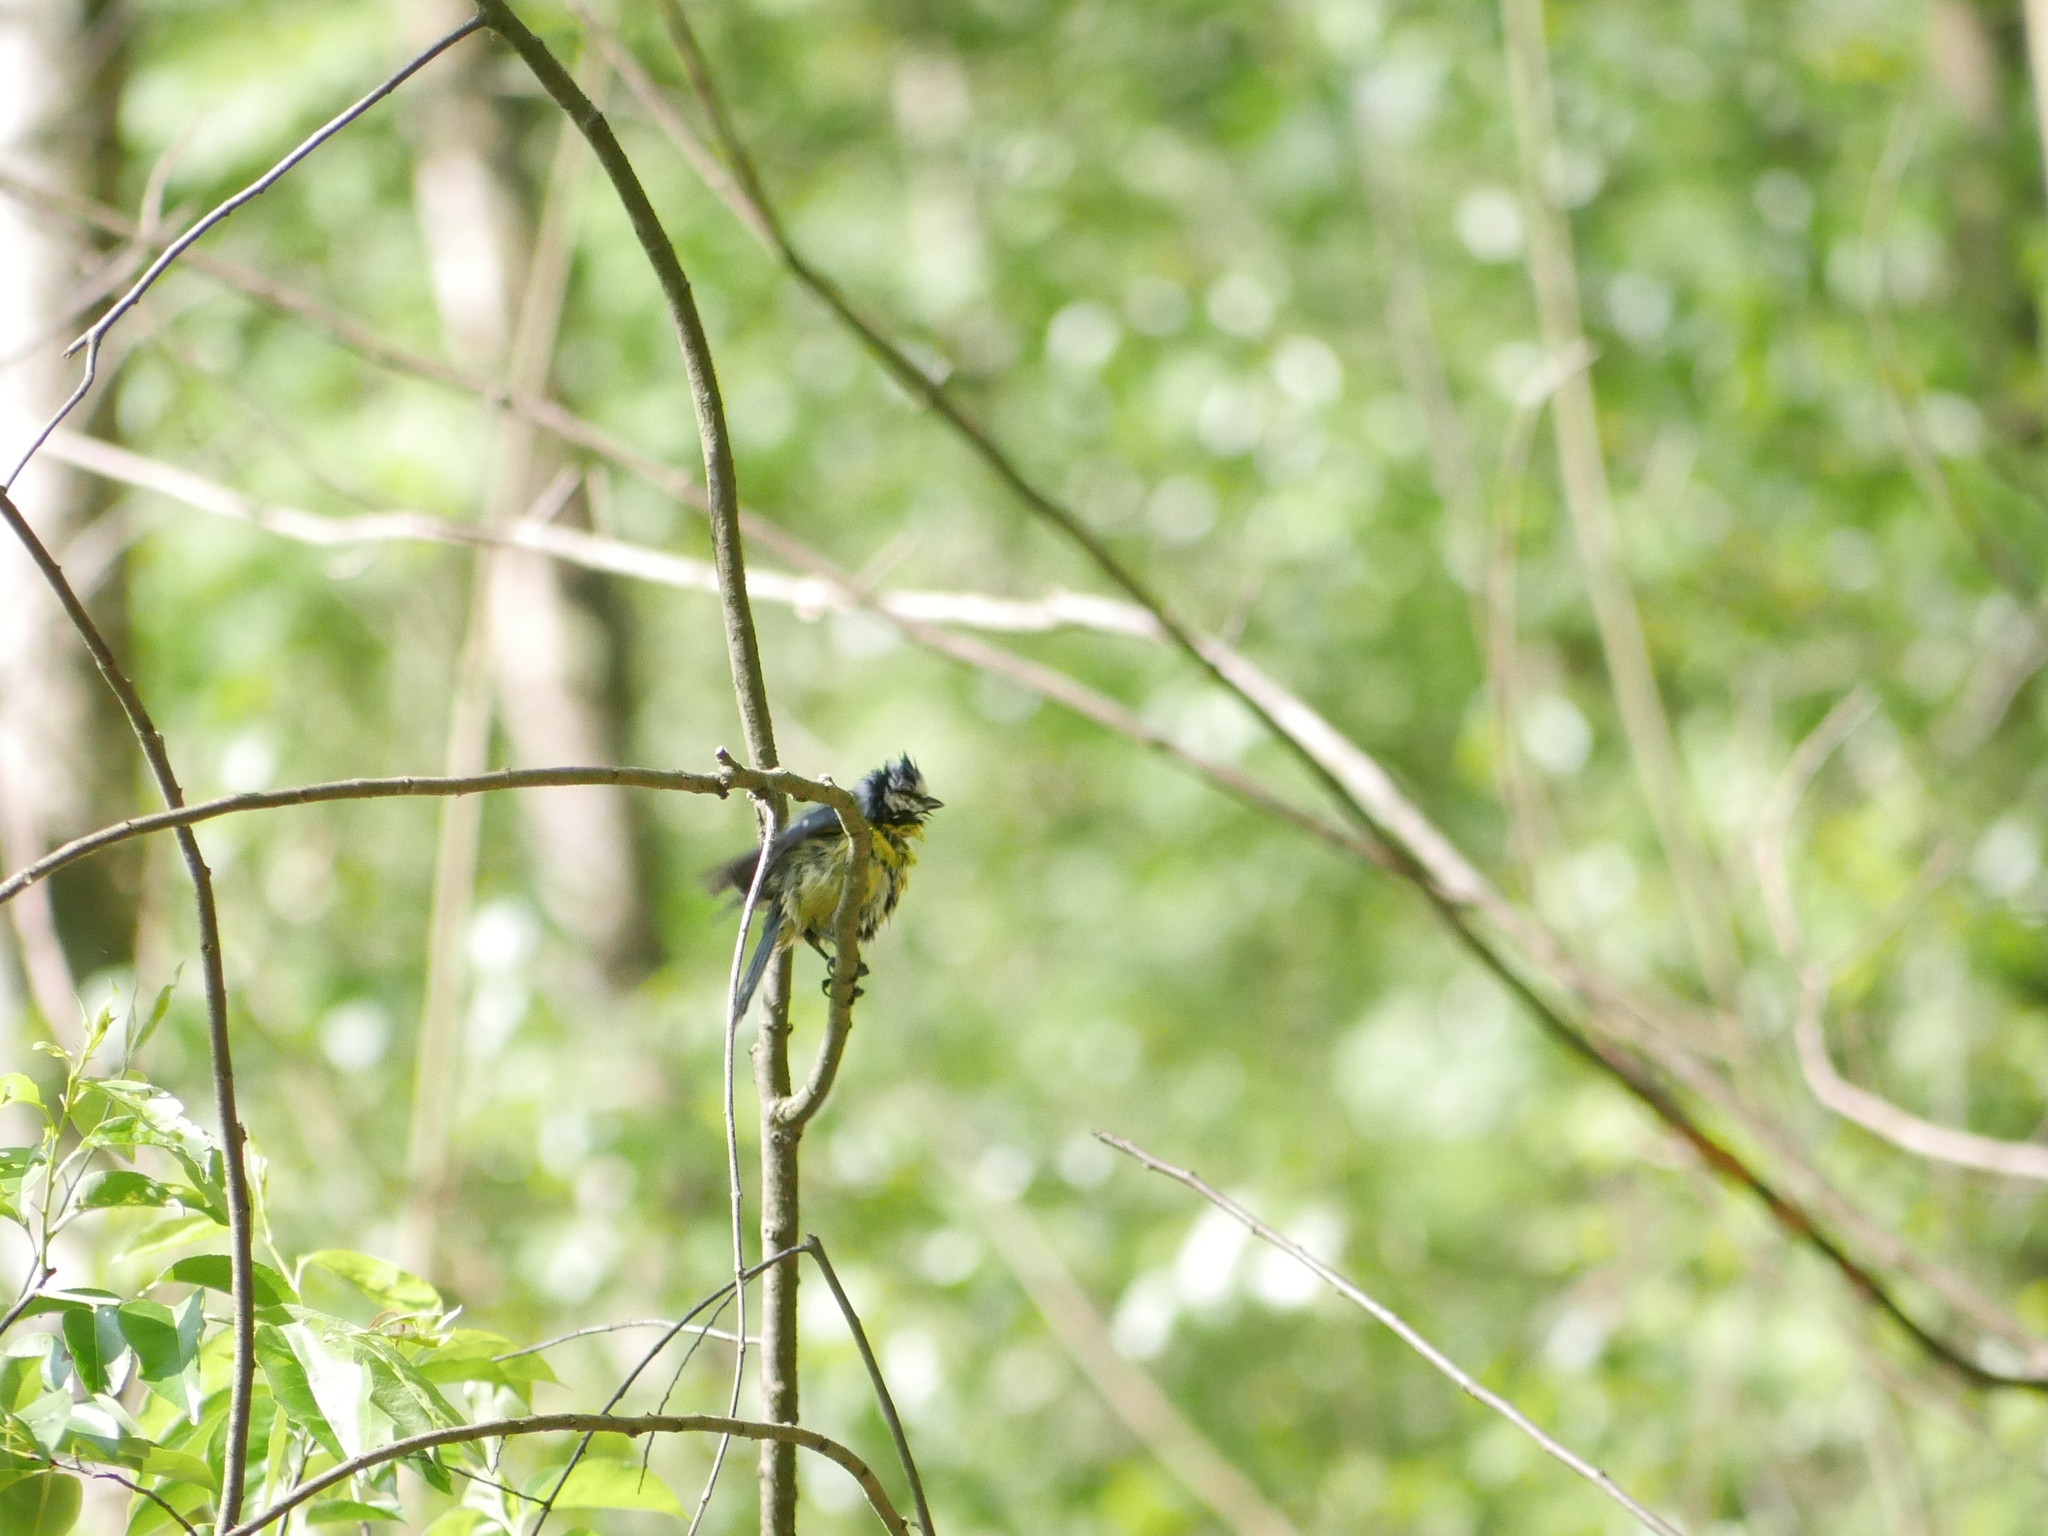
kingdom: Animalia
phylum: Chordata
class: Aves
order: Passeriformes
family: Paridae
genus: Cyanistes
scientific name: Cyanistes caeruleus
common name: Eurasian blue tit
